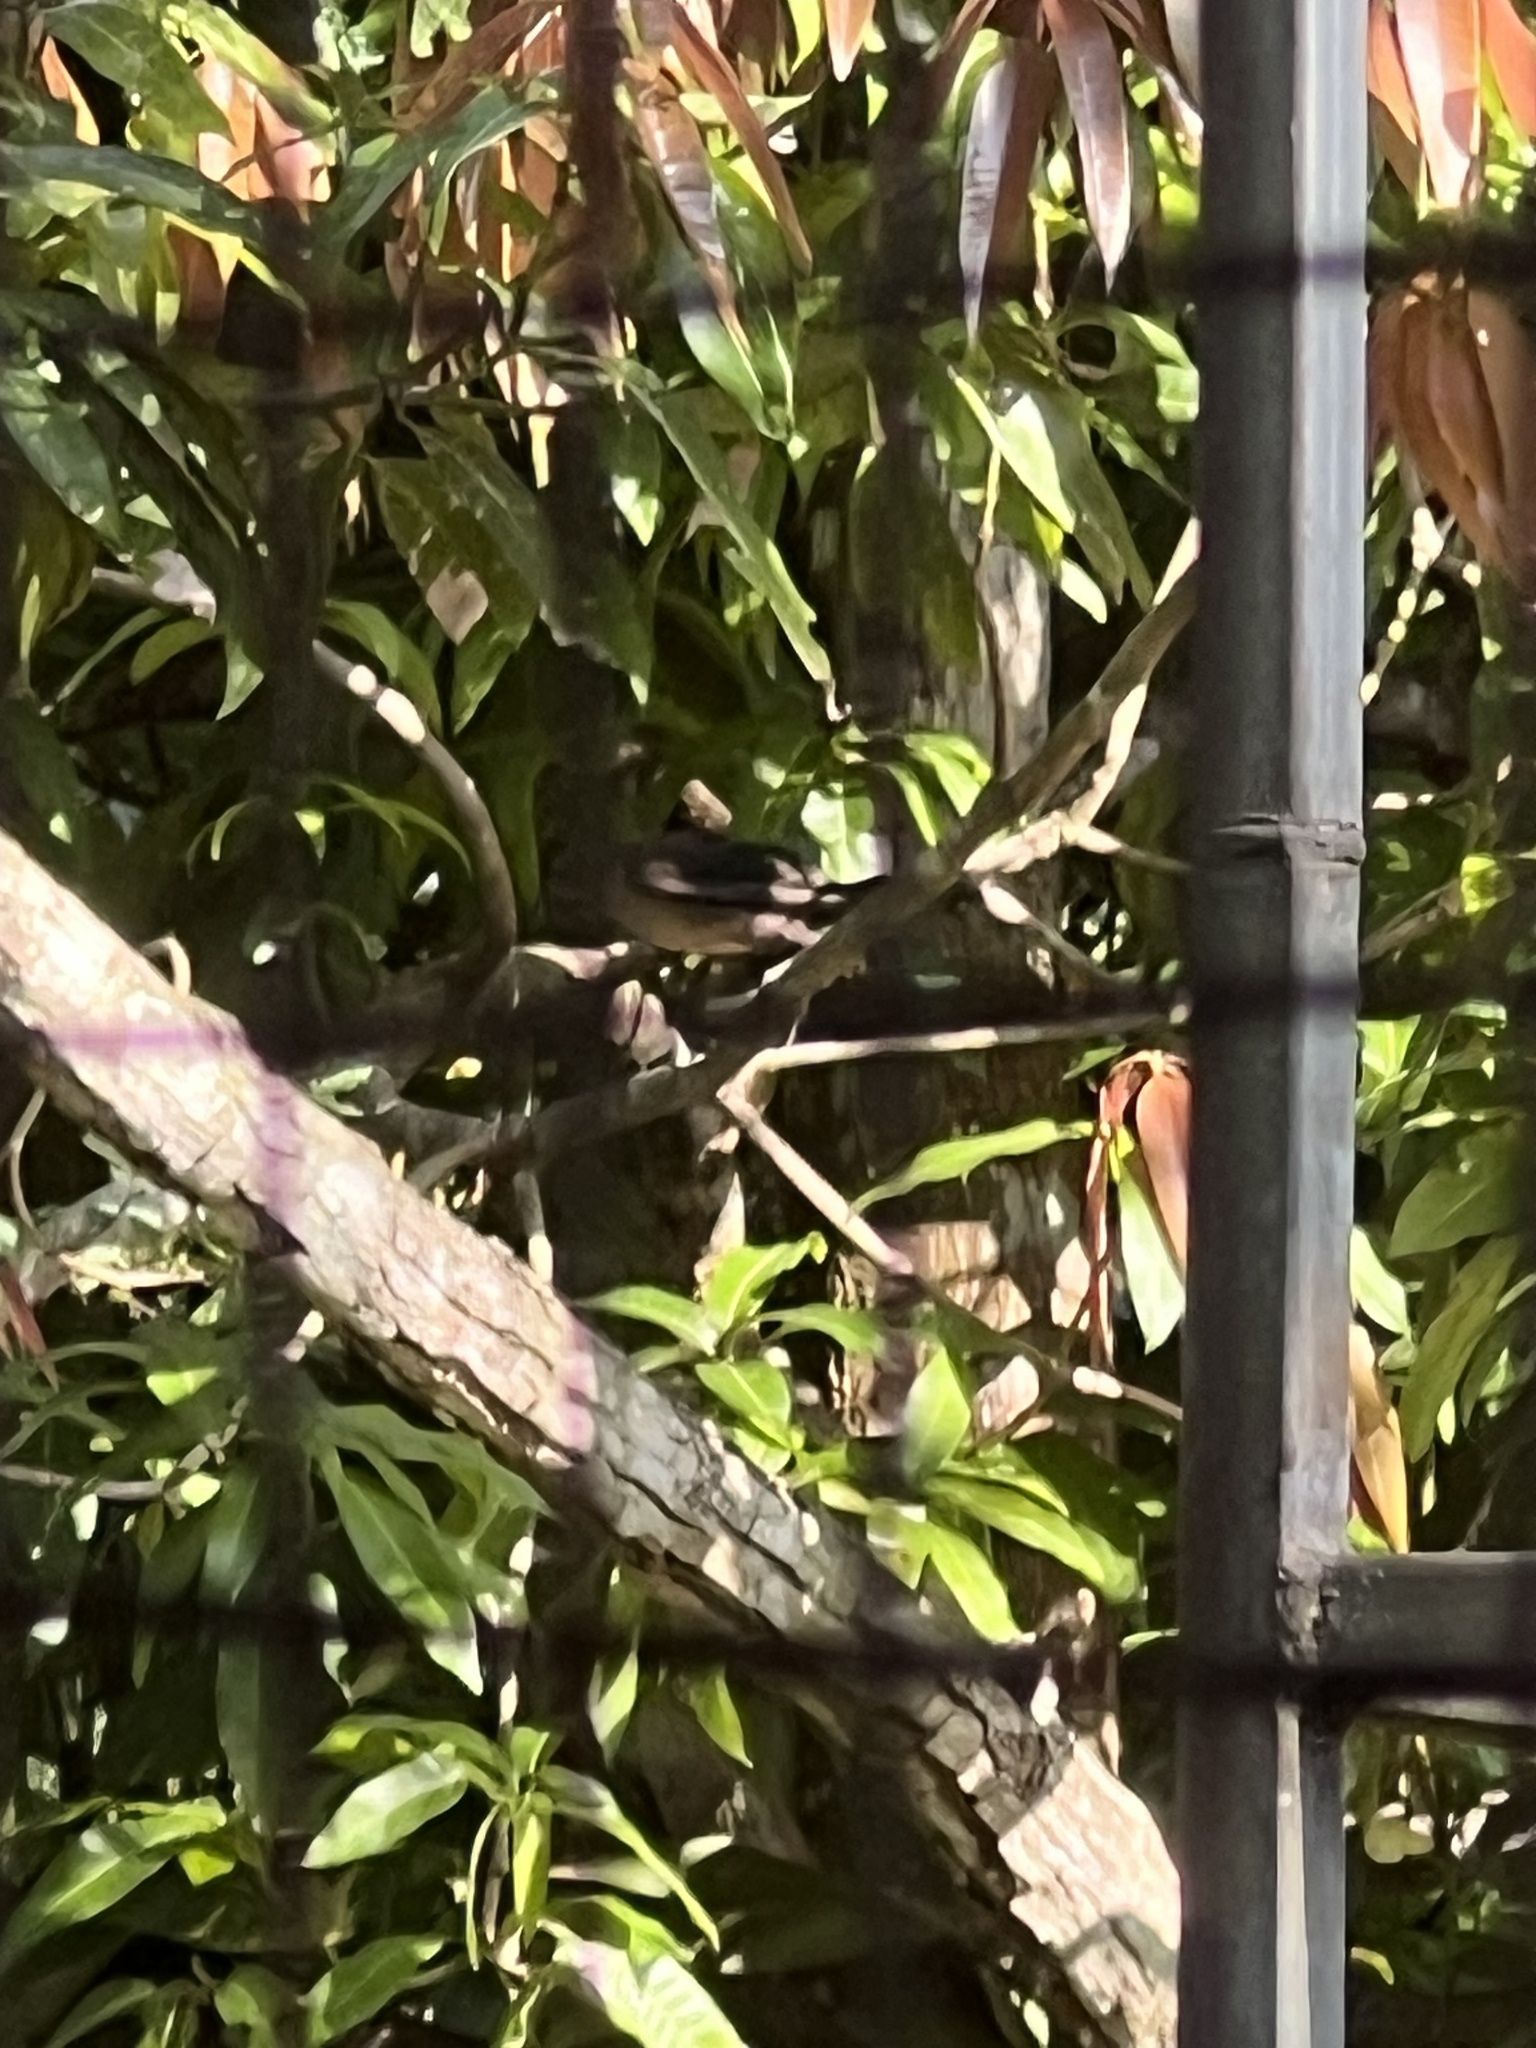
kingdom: Animalia
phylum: Chordata
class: Aves
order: Passeriformes
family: Turdidae
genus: Turdus
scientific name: Turdus grayi
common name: Clay-colored thrush
